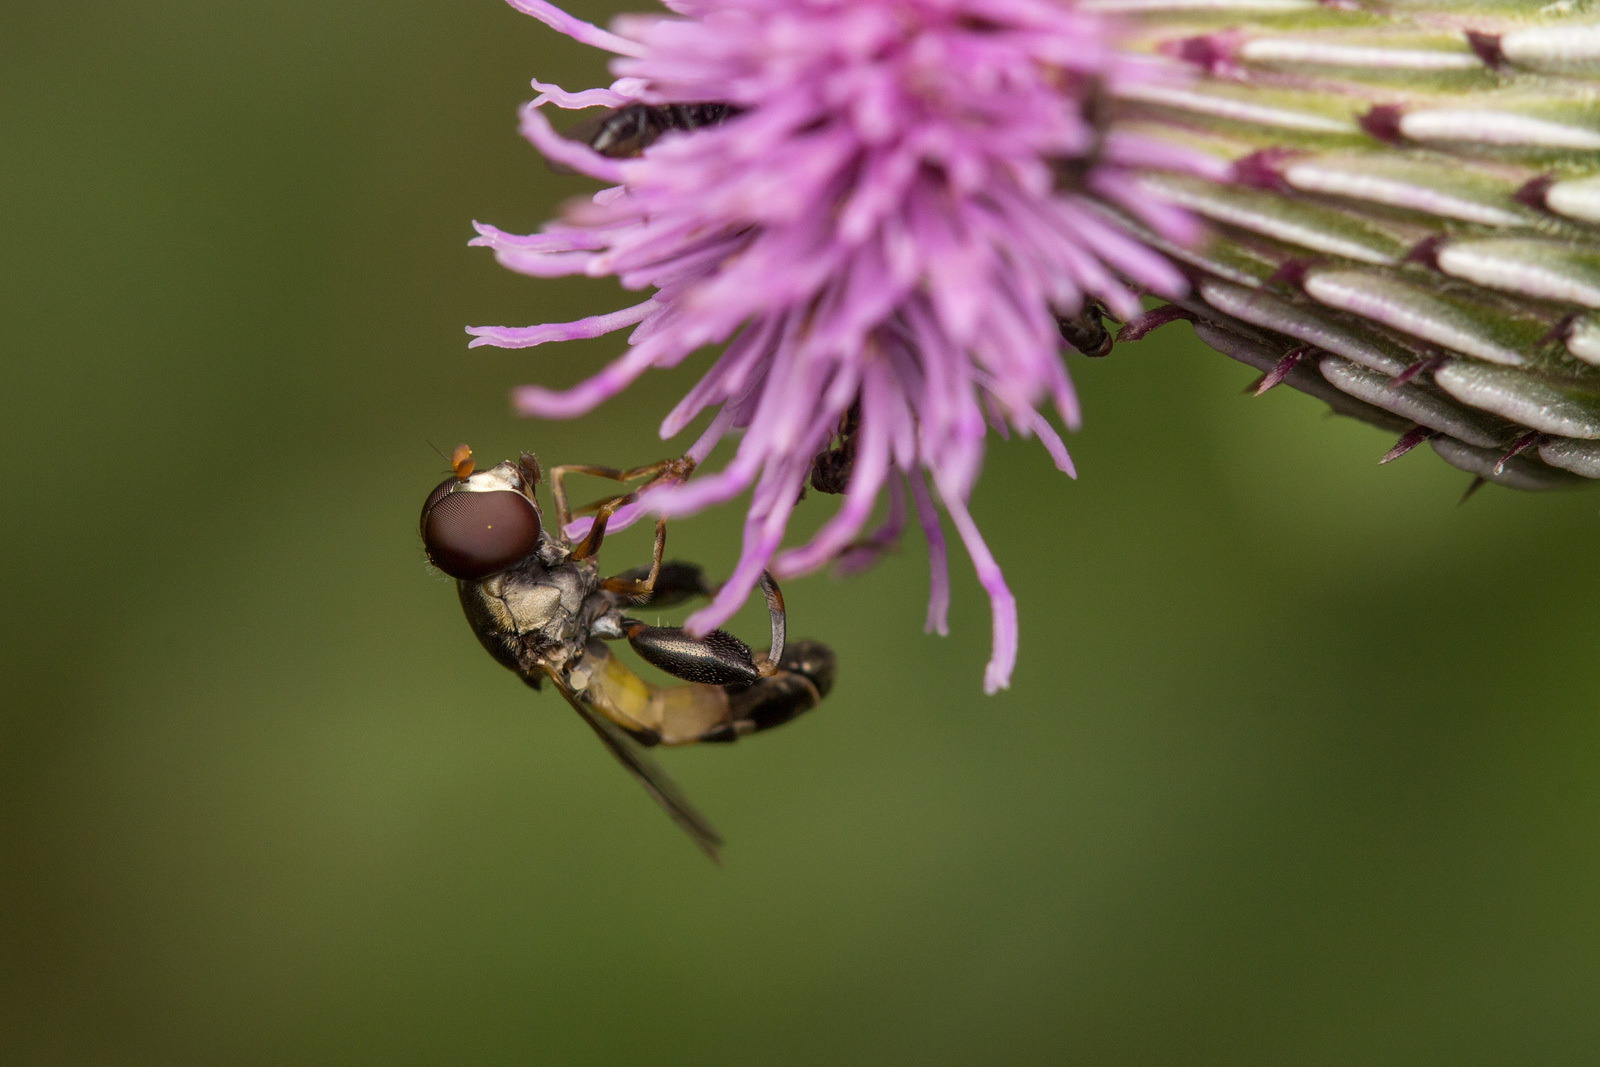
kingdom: Animalia
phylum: Arthropoda
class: Insecta
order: Diptera
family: Syrphidae
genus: Syritta
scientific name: Syritta pipiens
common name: Hover fly
